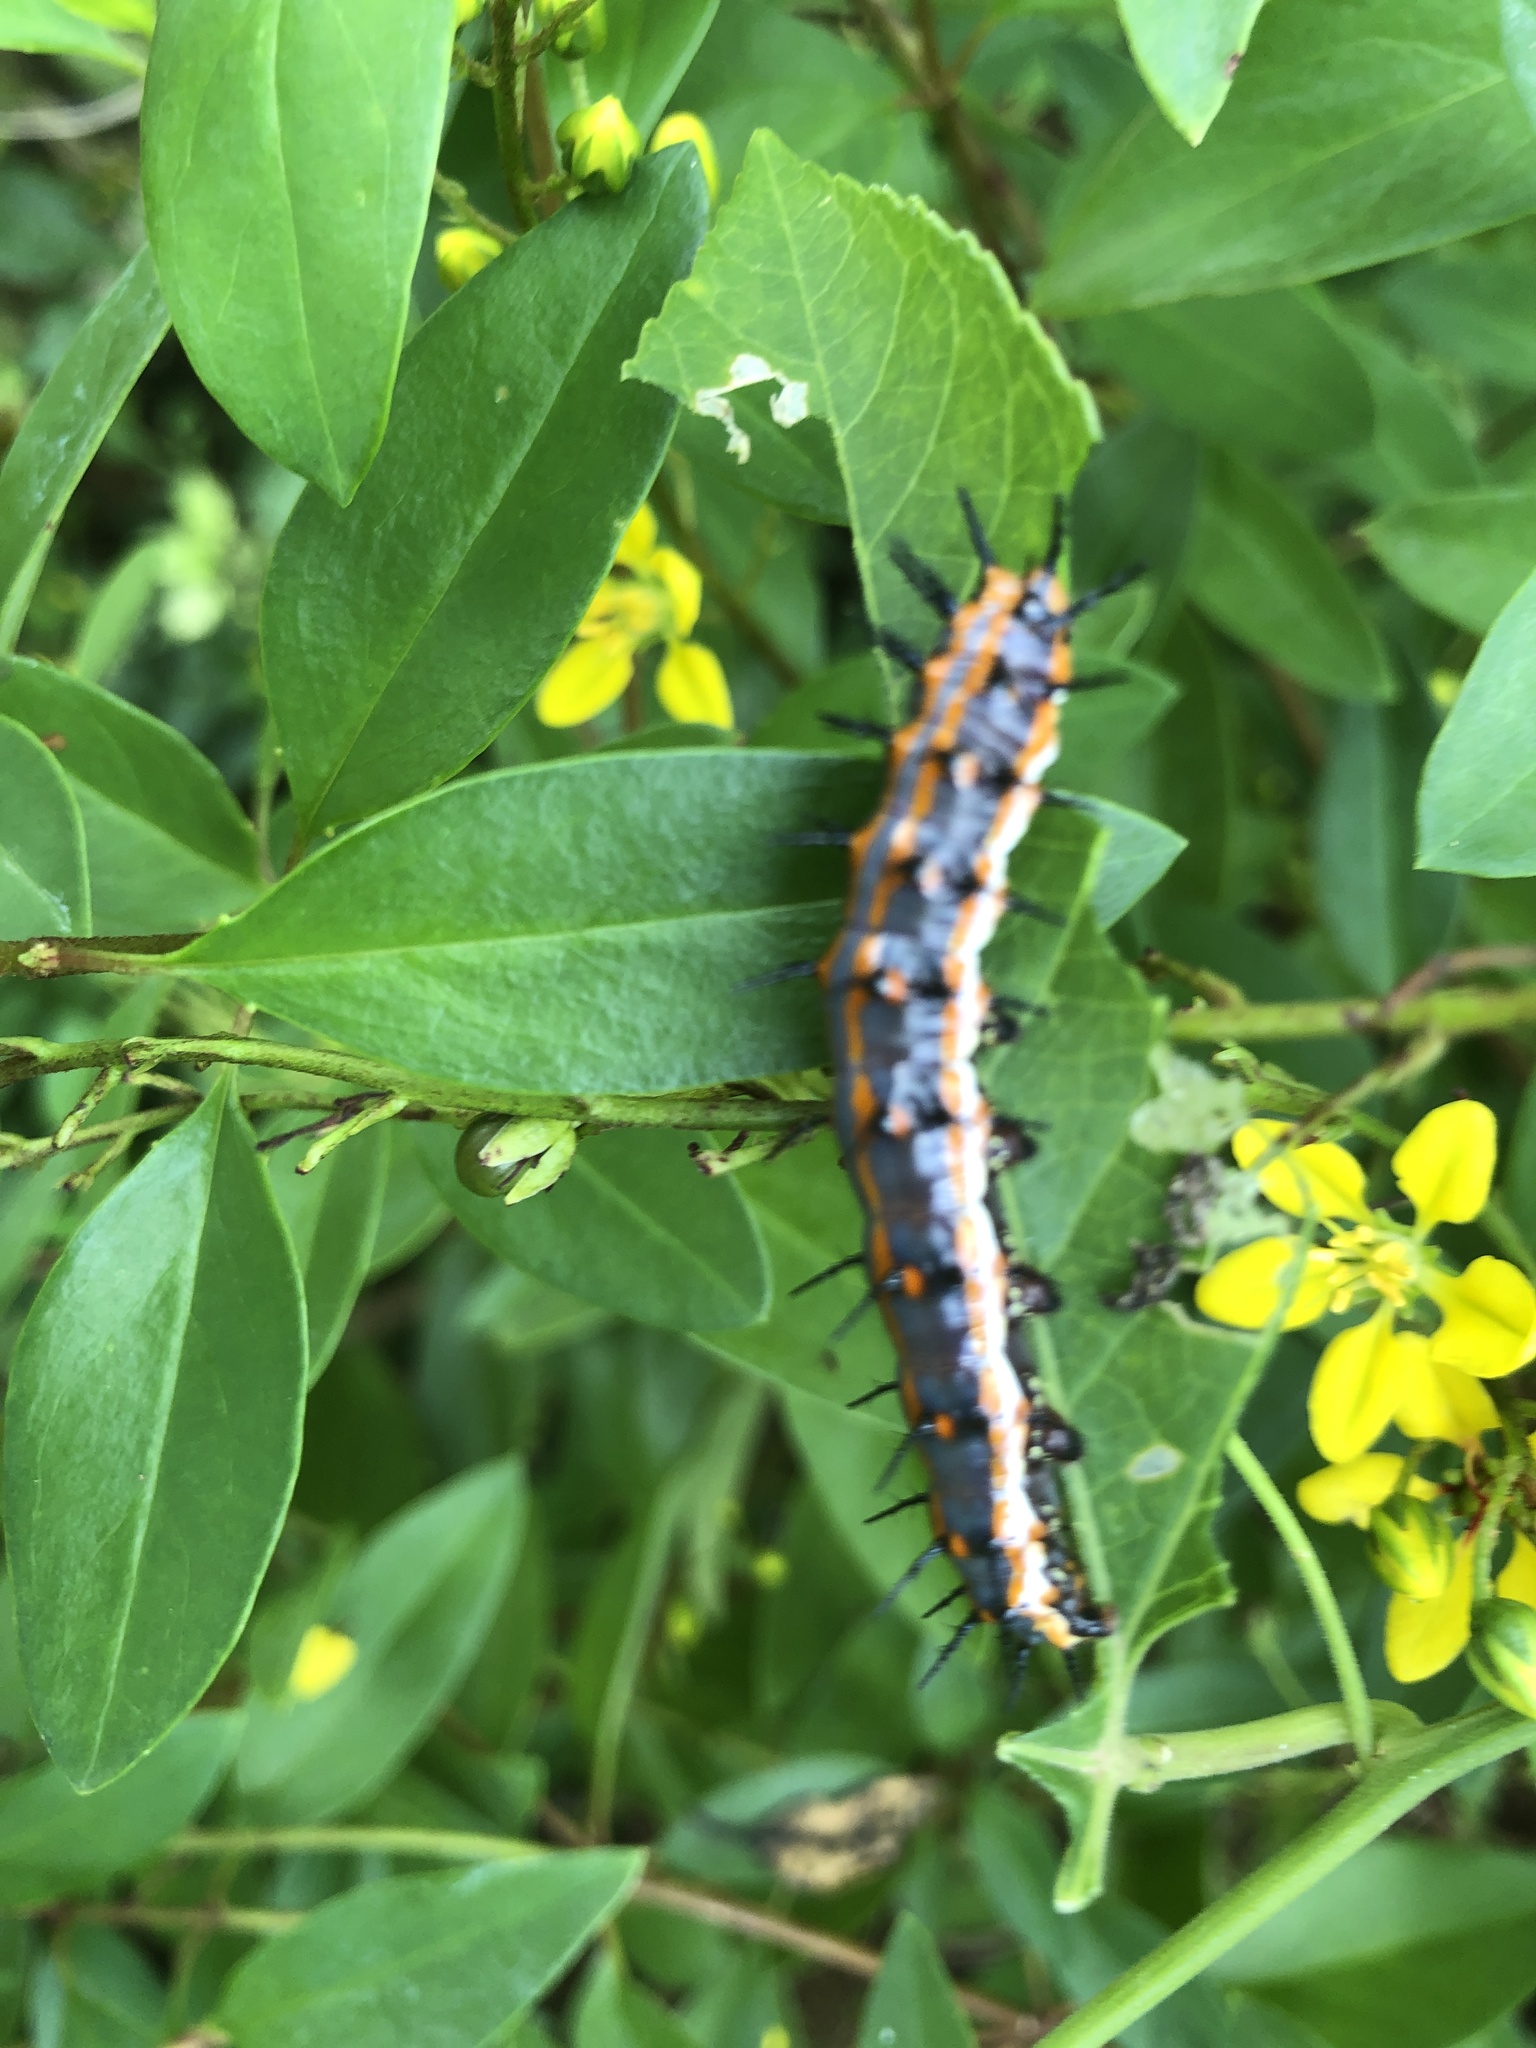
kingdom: Animalia
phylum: Arthropoda
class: Insecta
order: Lepidoptera
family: Nymphalidae
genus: Dione
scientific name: Dione vanillae
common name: Gulf fritillary
